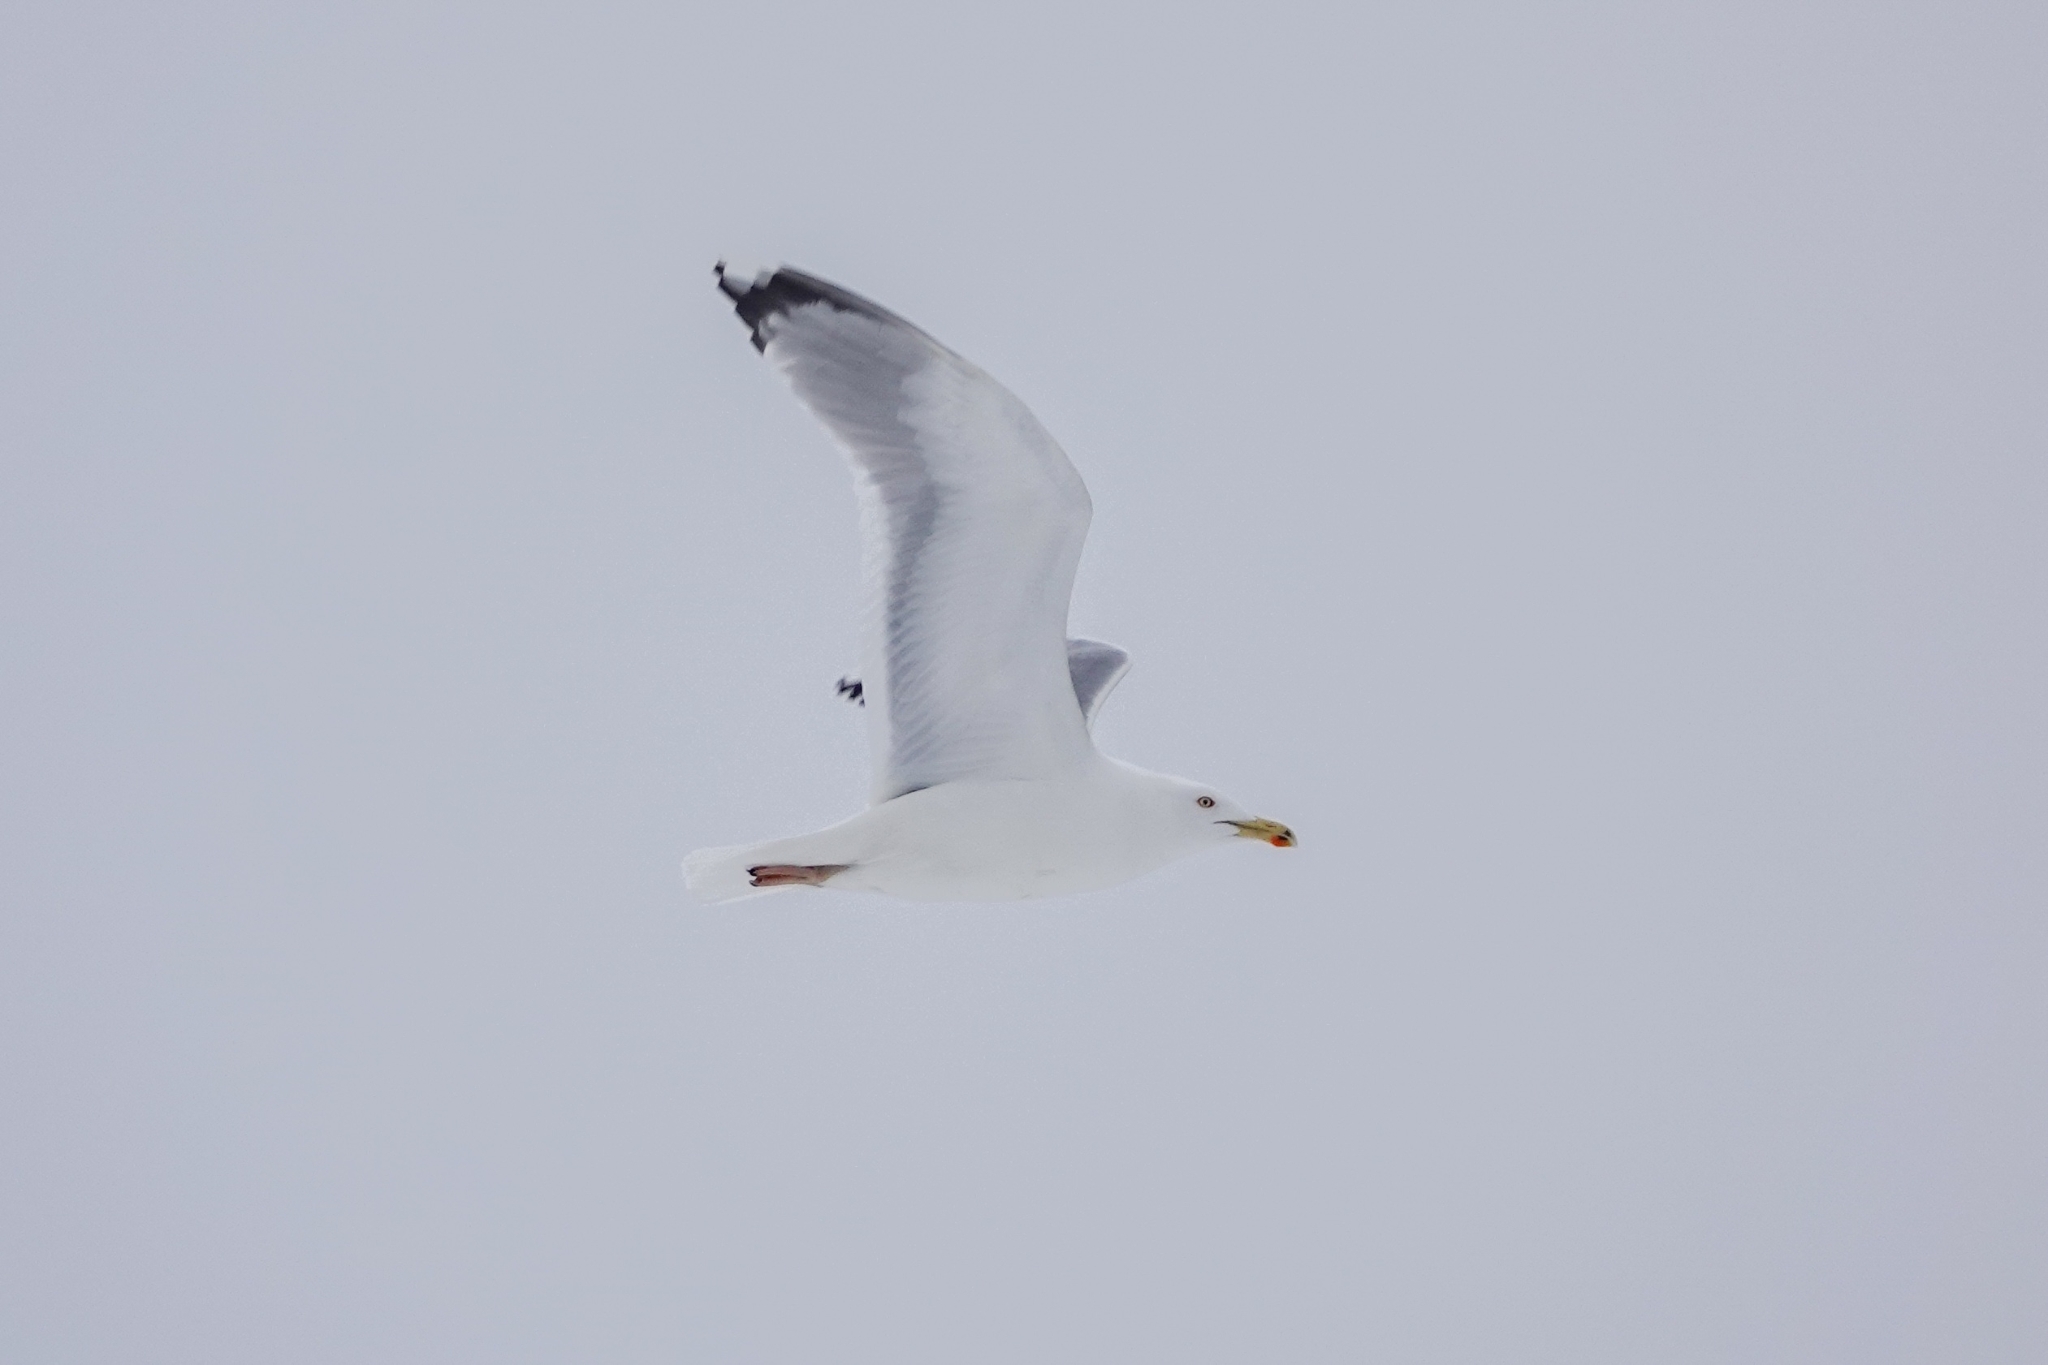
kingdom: Animalia
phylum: Chordata
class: Aves
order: Charadriiformes
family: Laridae
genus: Larus
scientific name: Larus argentatus
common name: Herring gull
